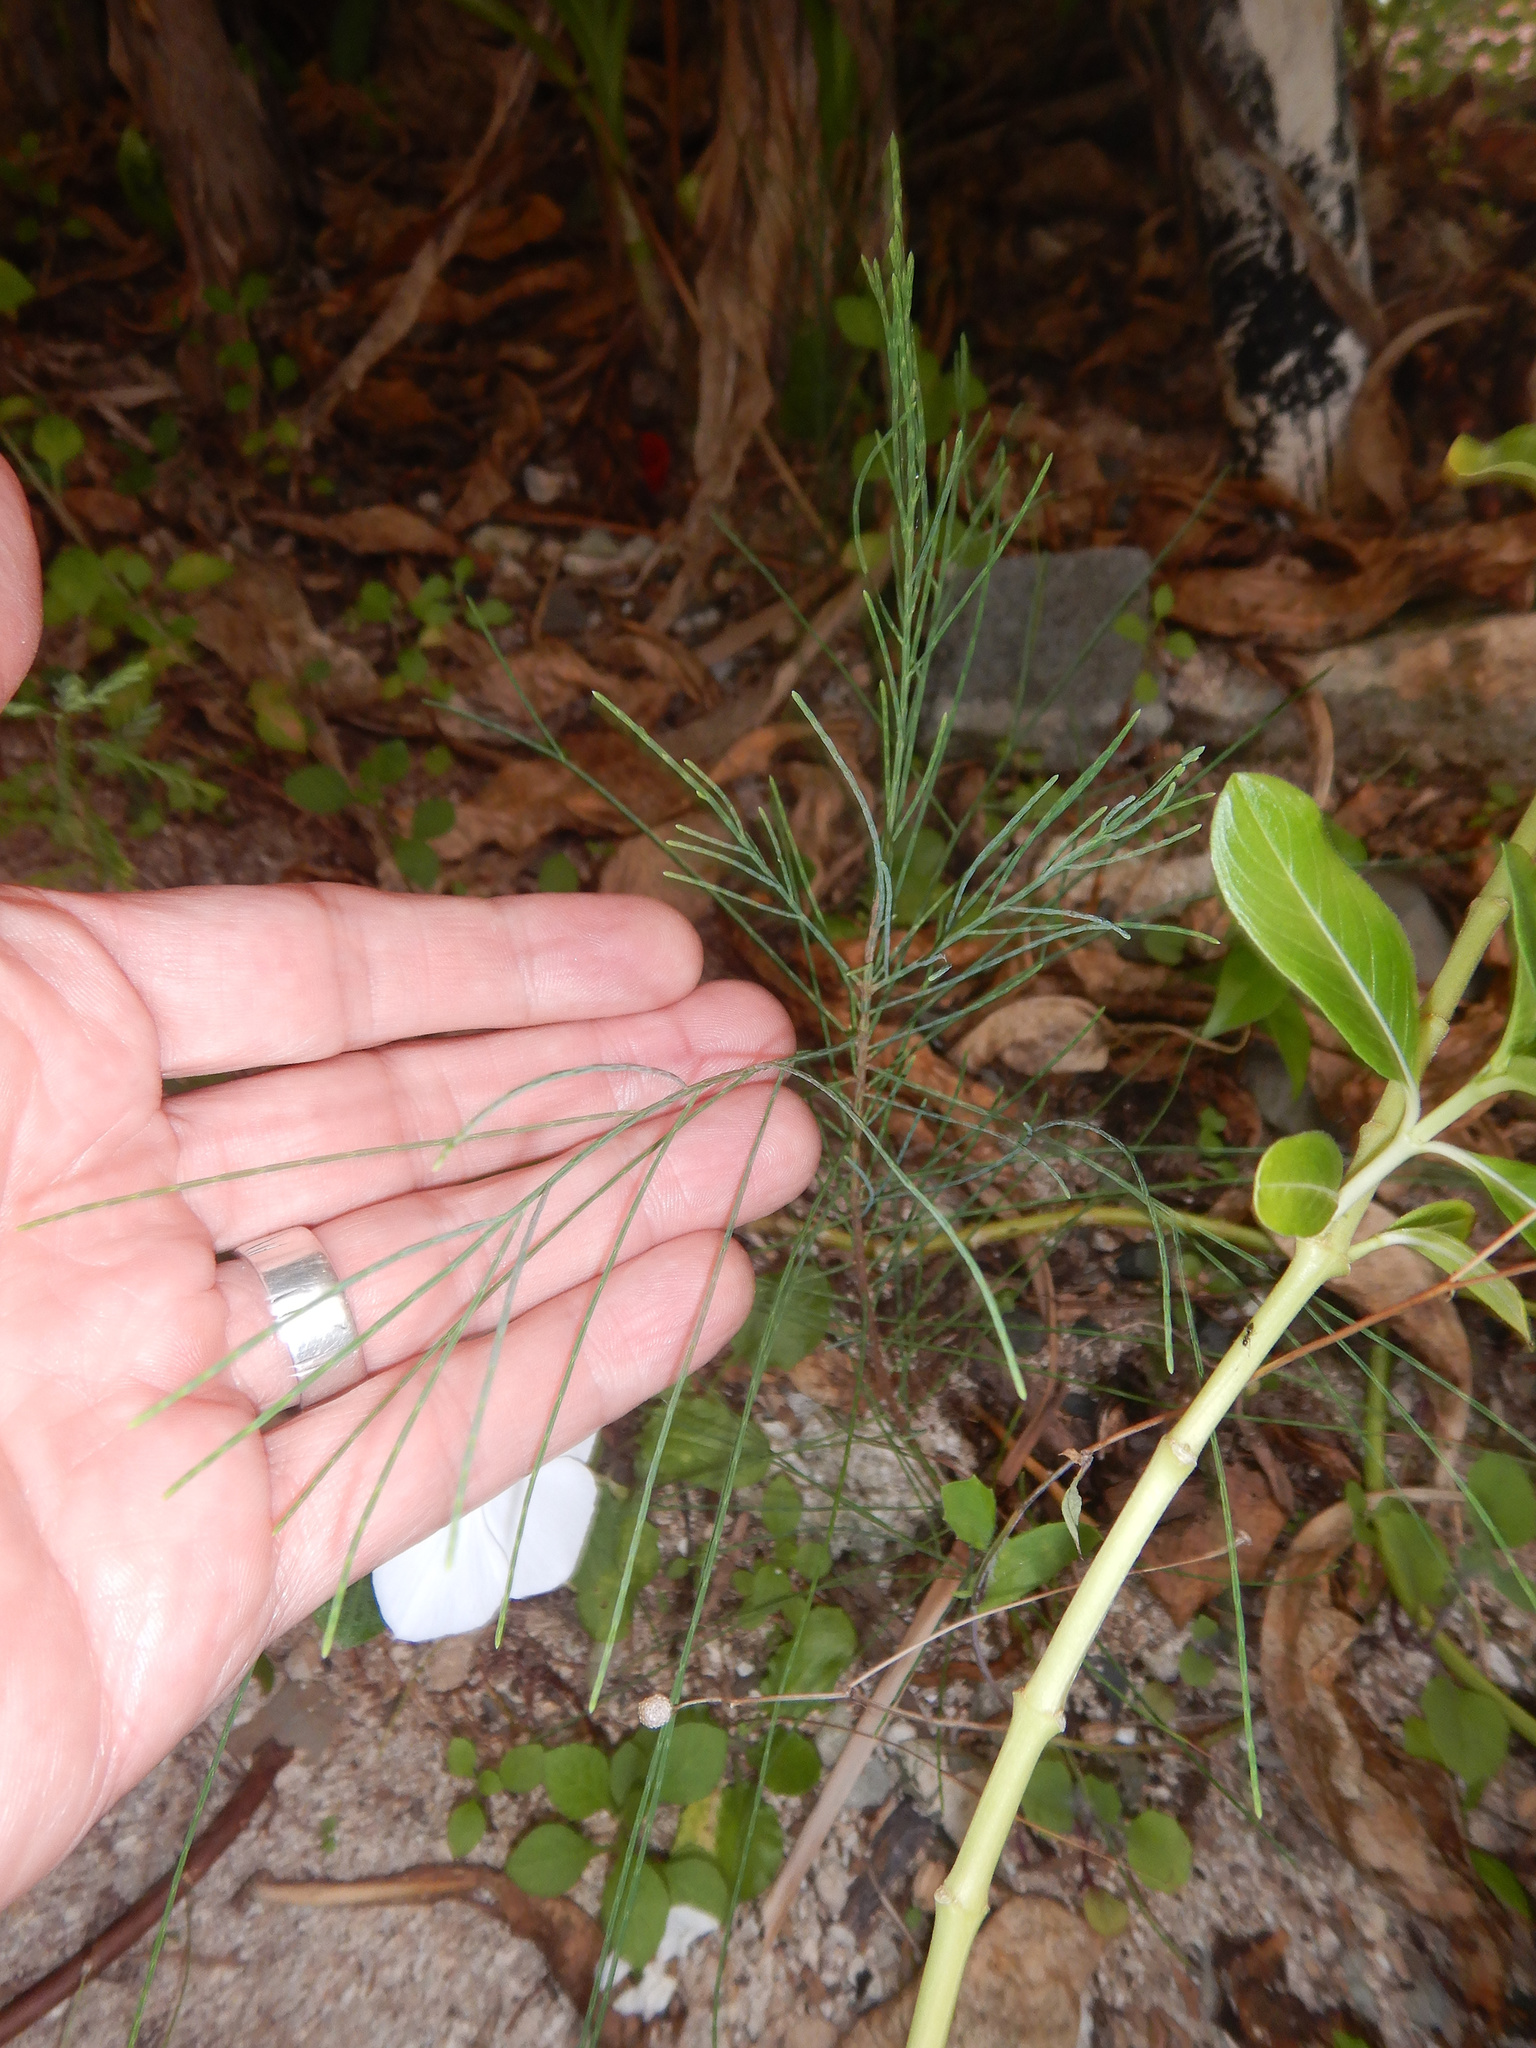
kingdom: Plantae
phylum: Tracheophyta
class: Magnoliopsida
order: Fagales
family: Casuarinaceae
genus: Casuarina
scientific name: Casuarina equisetifolia
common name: Beach sheoak
